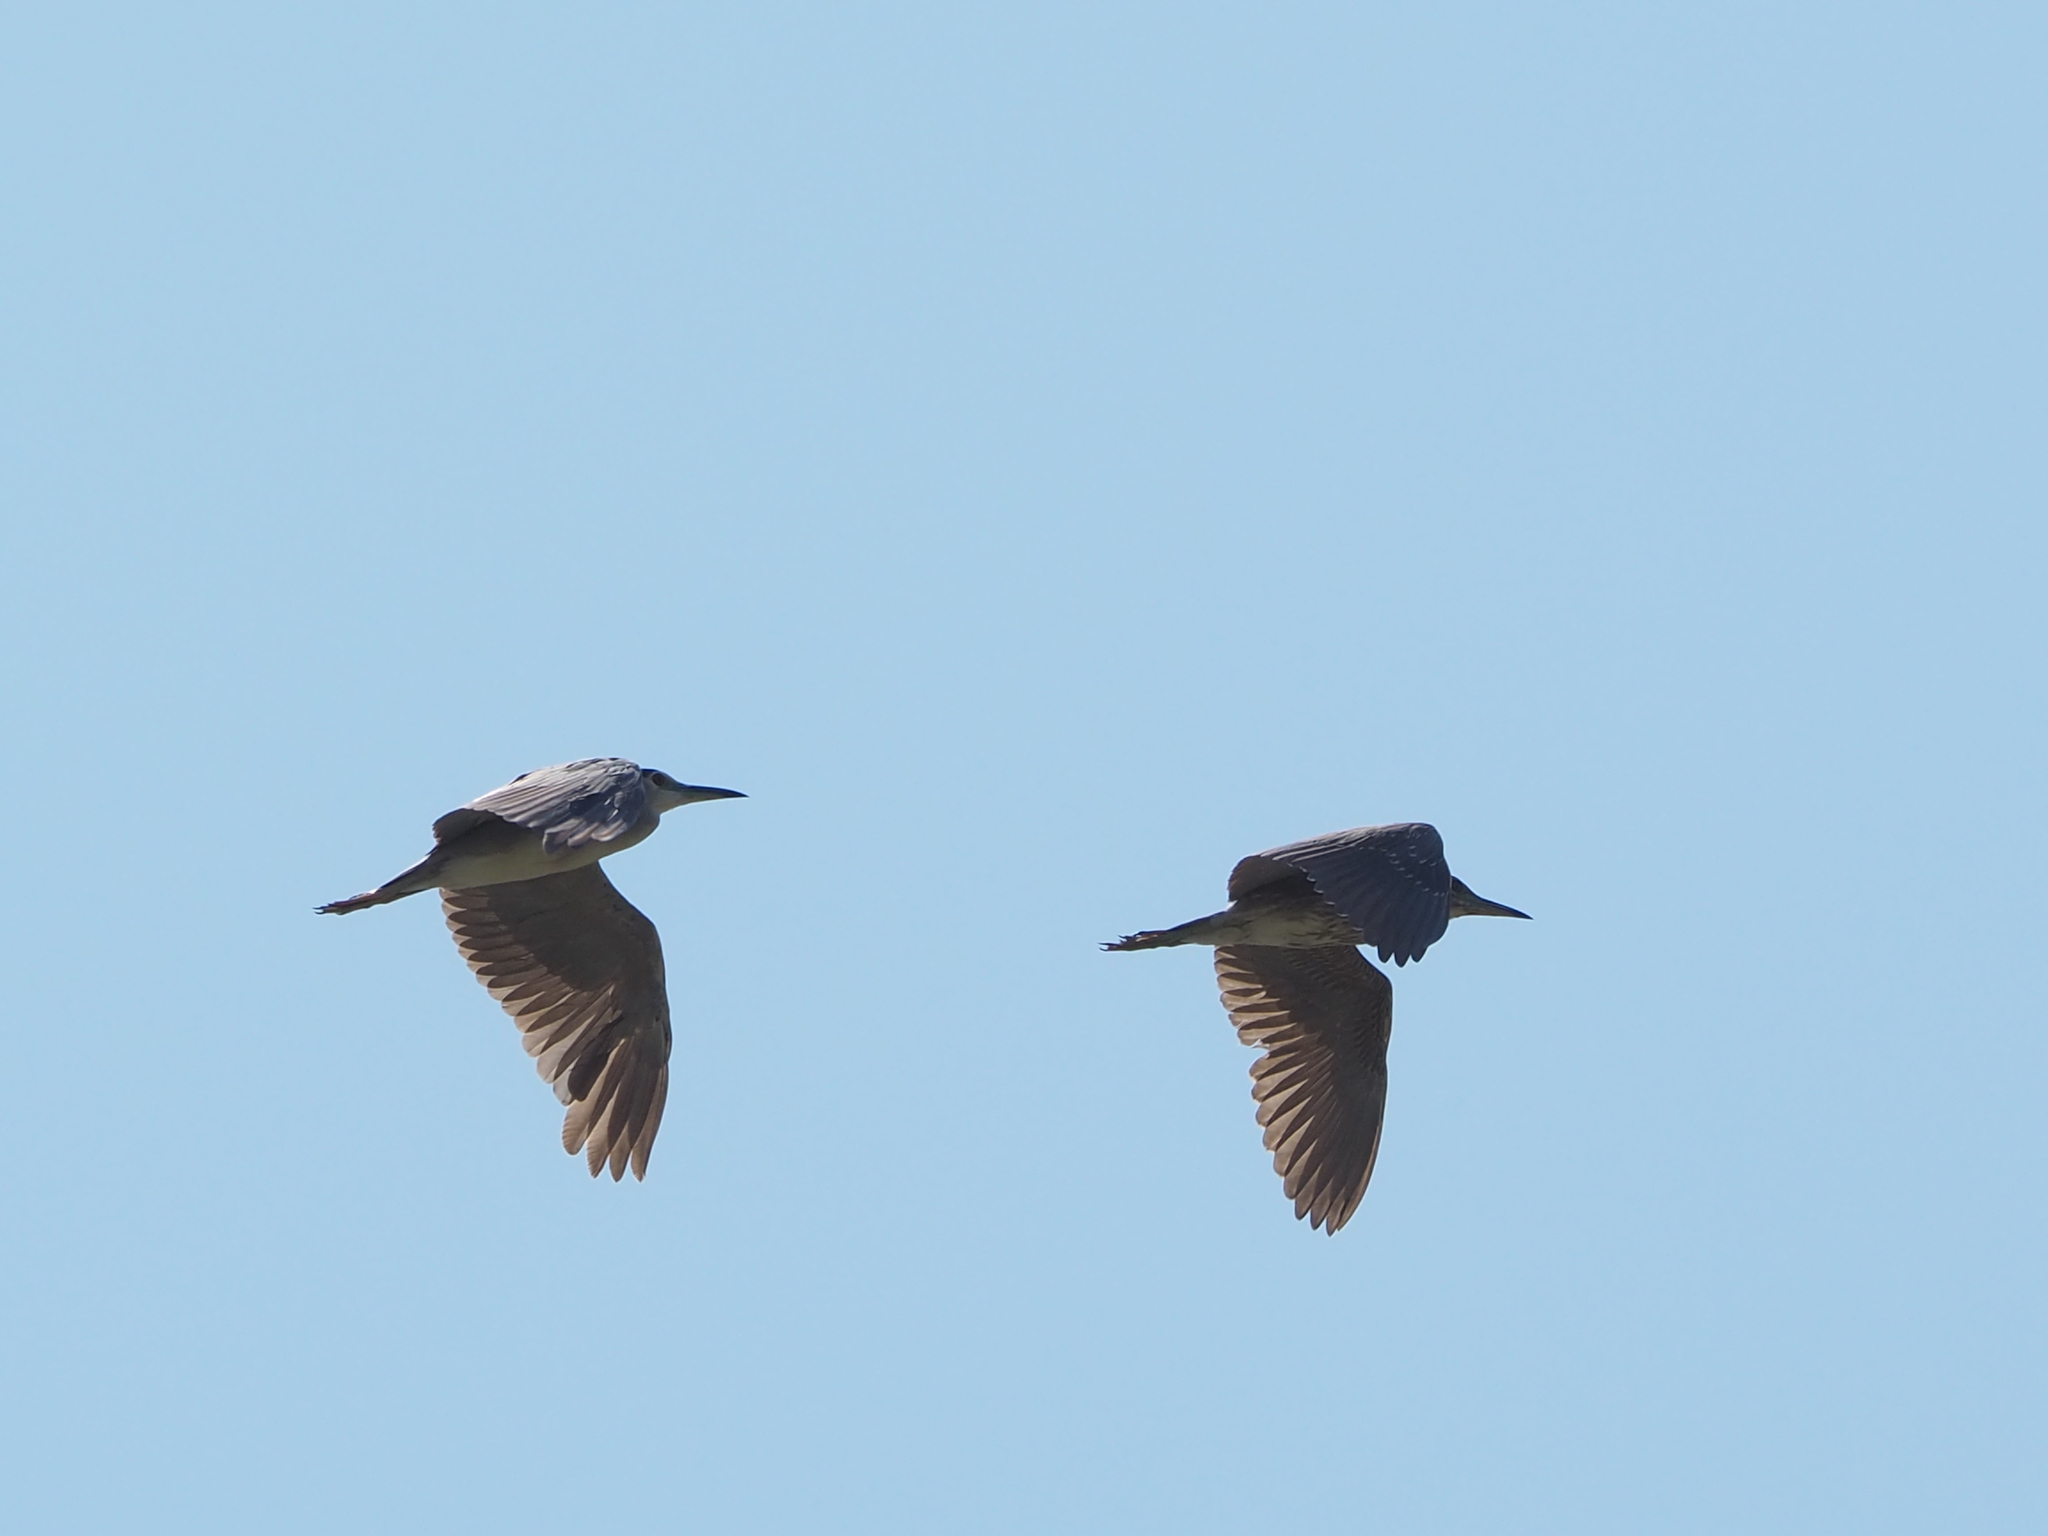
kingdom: Animalia
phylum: Chordata
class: Aves
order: Pelecaniformes
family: Ardeidae
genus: Nycticorax
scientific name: Nycticorax nycticorax
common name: Black-crowned night heron
